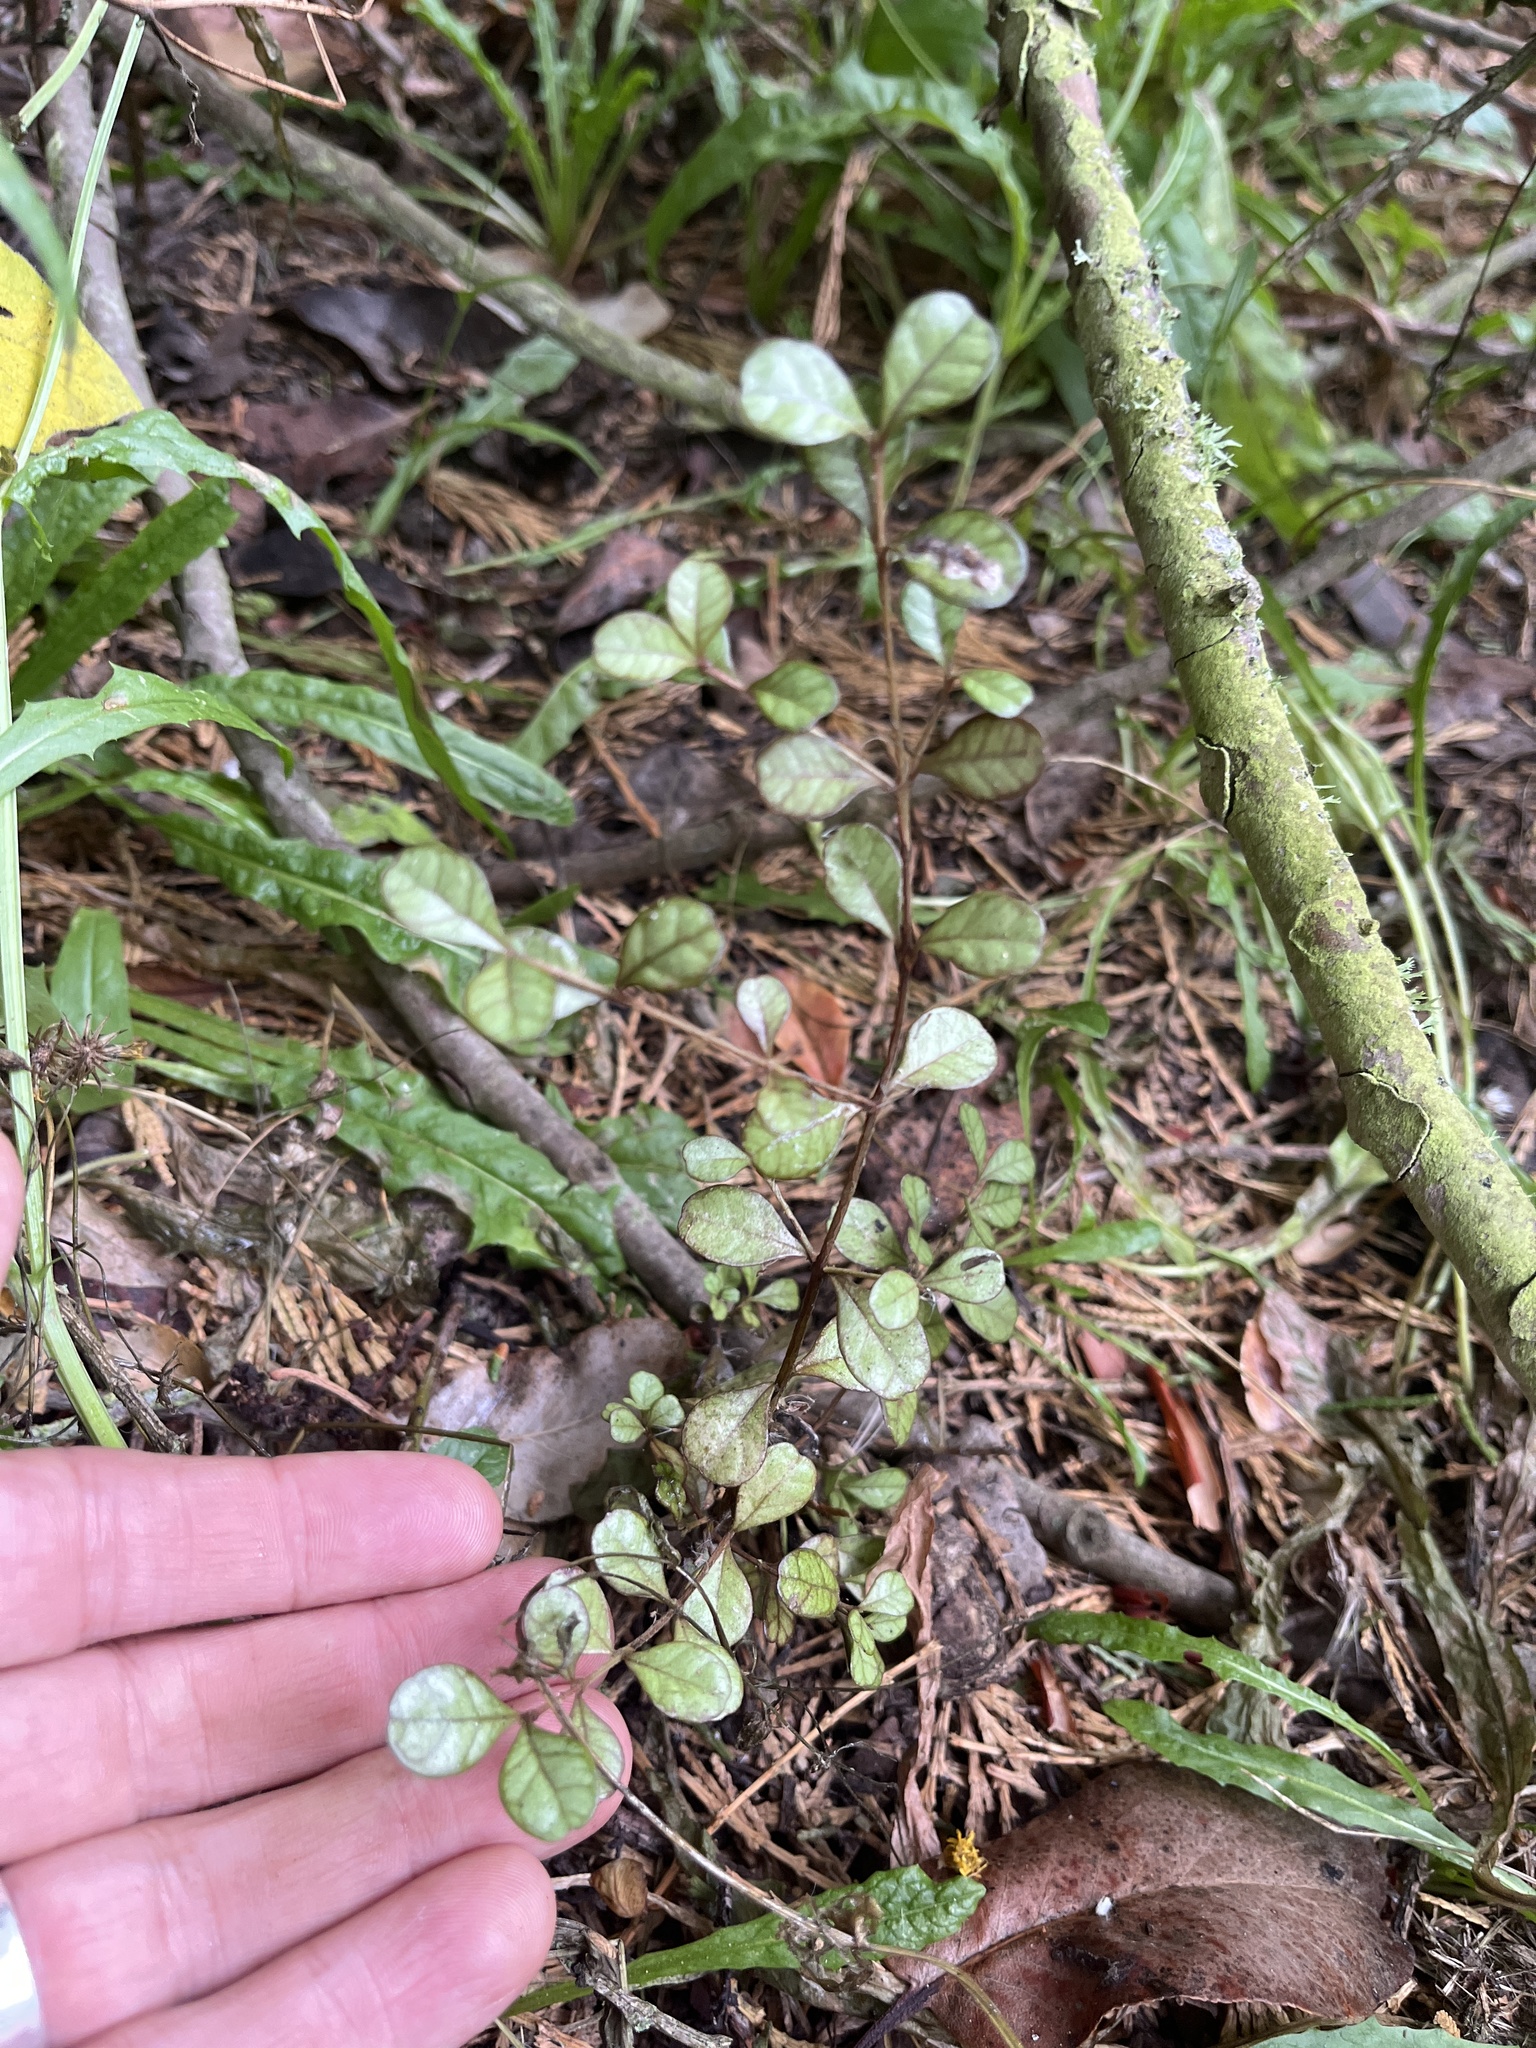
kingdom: Plantae
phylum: Tracheophyta
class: Magnoliopsida
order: Myrtales
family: Myrtaceae
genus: Lophomyrtus
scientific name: Lophomyrtus obcordata
